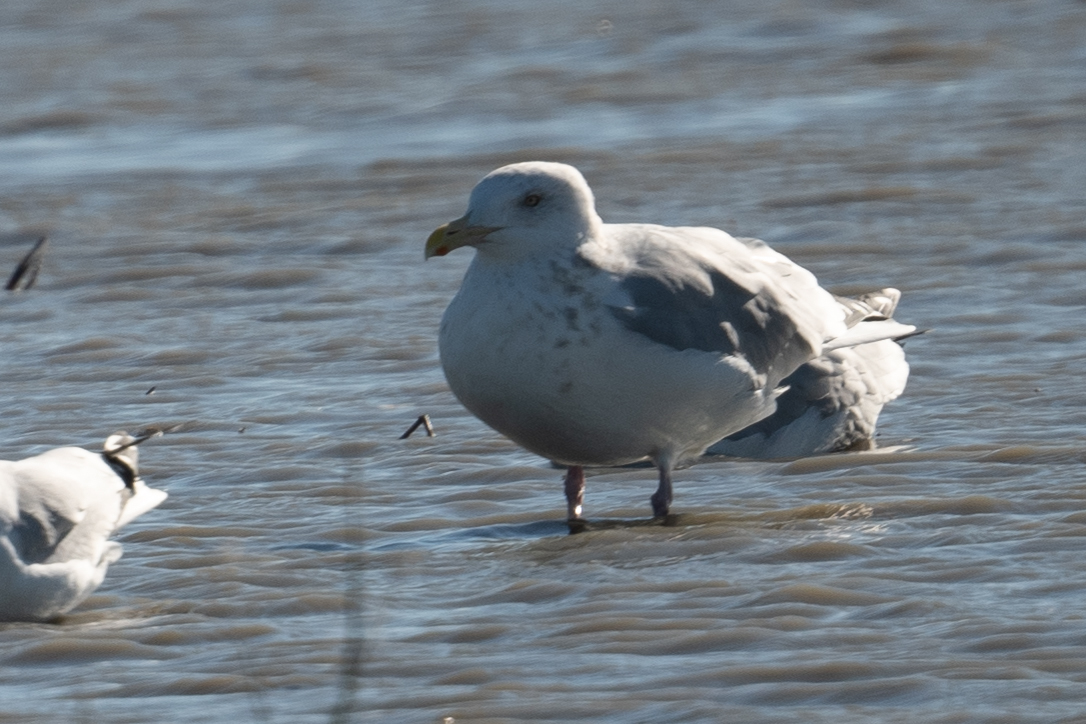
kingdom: Animalia
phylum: Chordata
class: Aves
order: Charadriiformes
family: Laridae
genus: Larus
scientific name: Larus argentatus
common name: Herring gull
